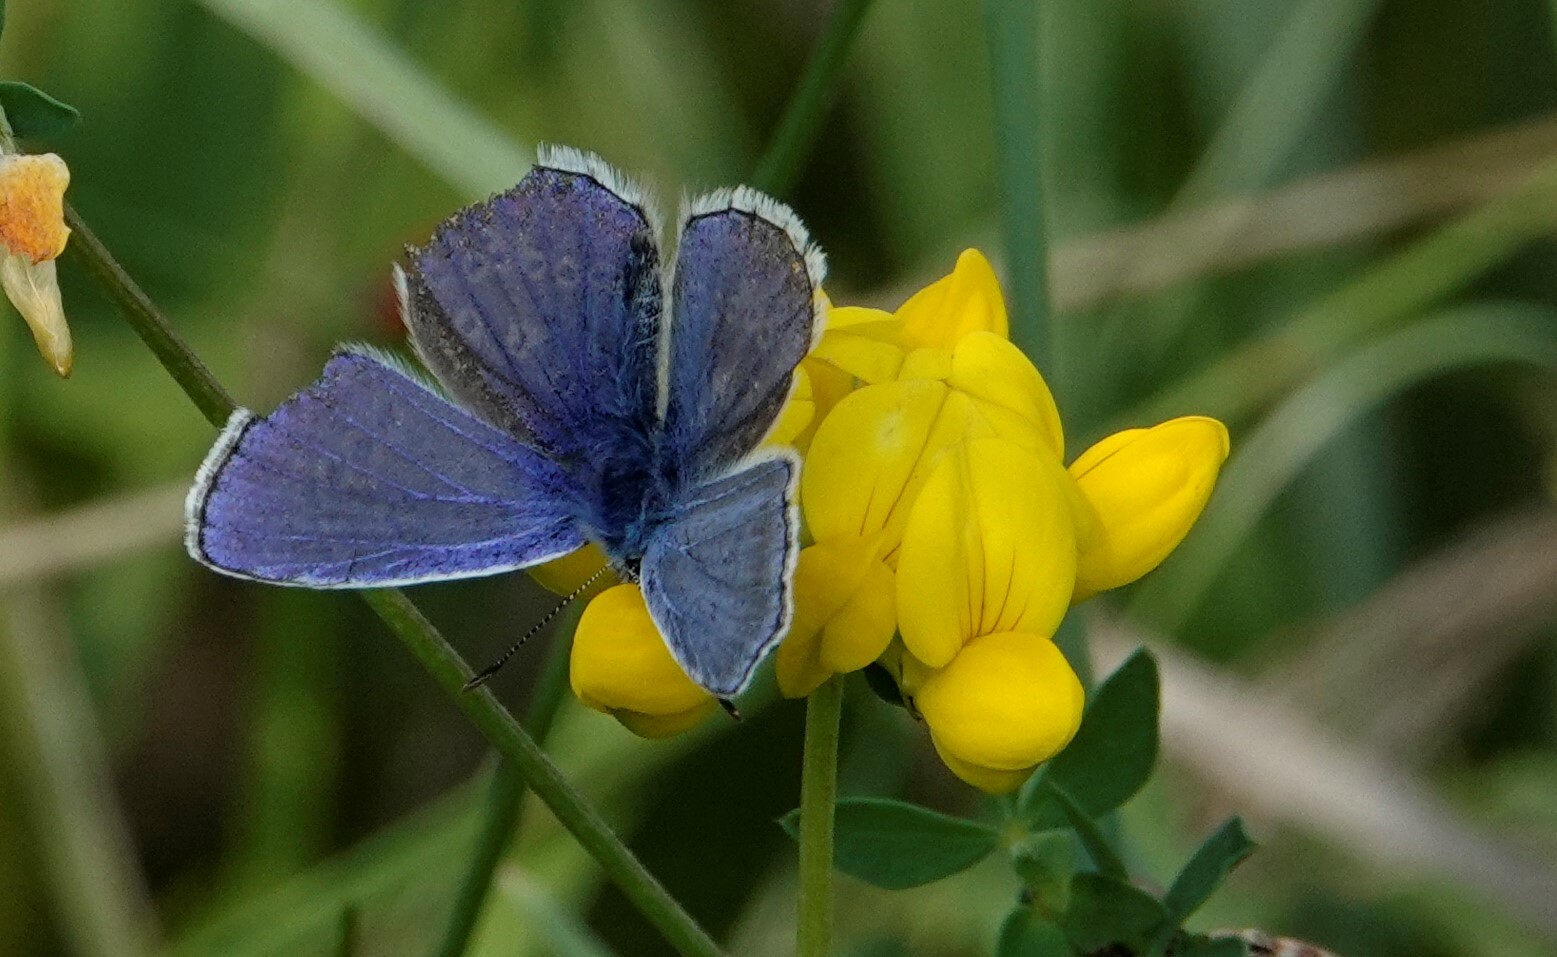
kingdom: Animalia
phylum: Arthropoda
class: Insecta
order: Lepidoptera
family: Lycaenidae
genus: Polyommatus
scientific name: Polyommatus icarus
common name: Common blue
